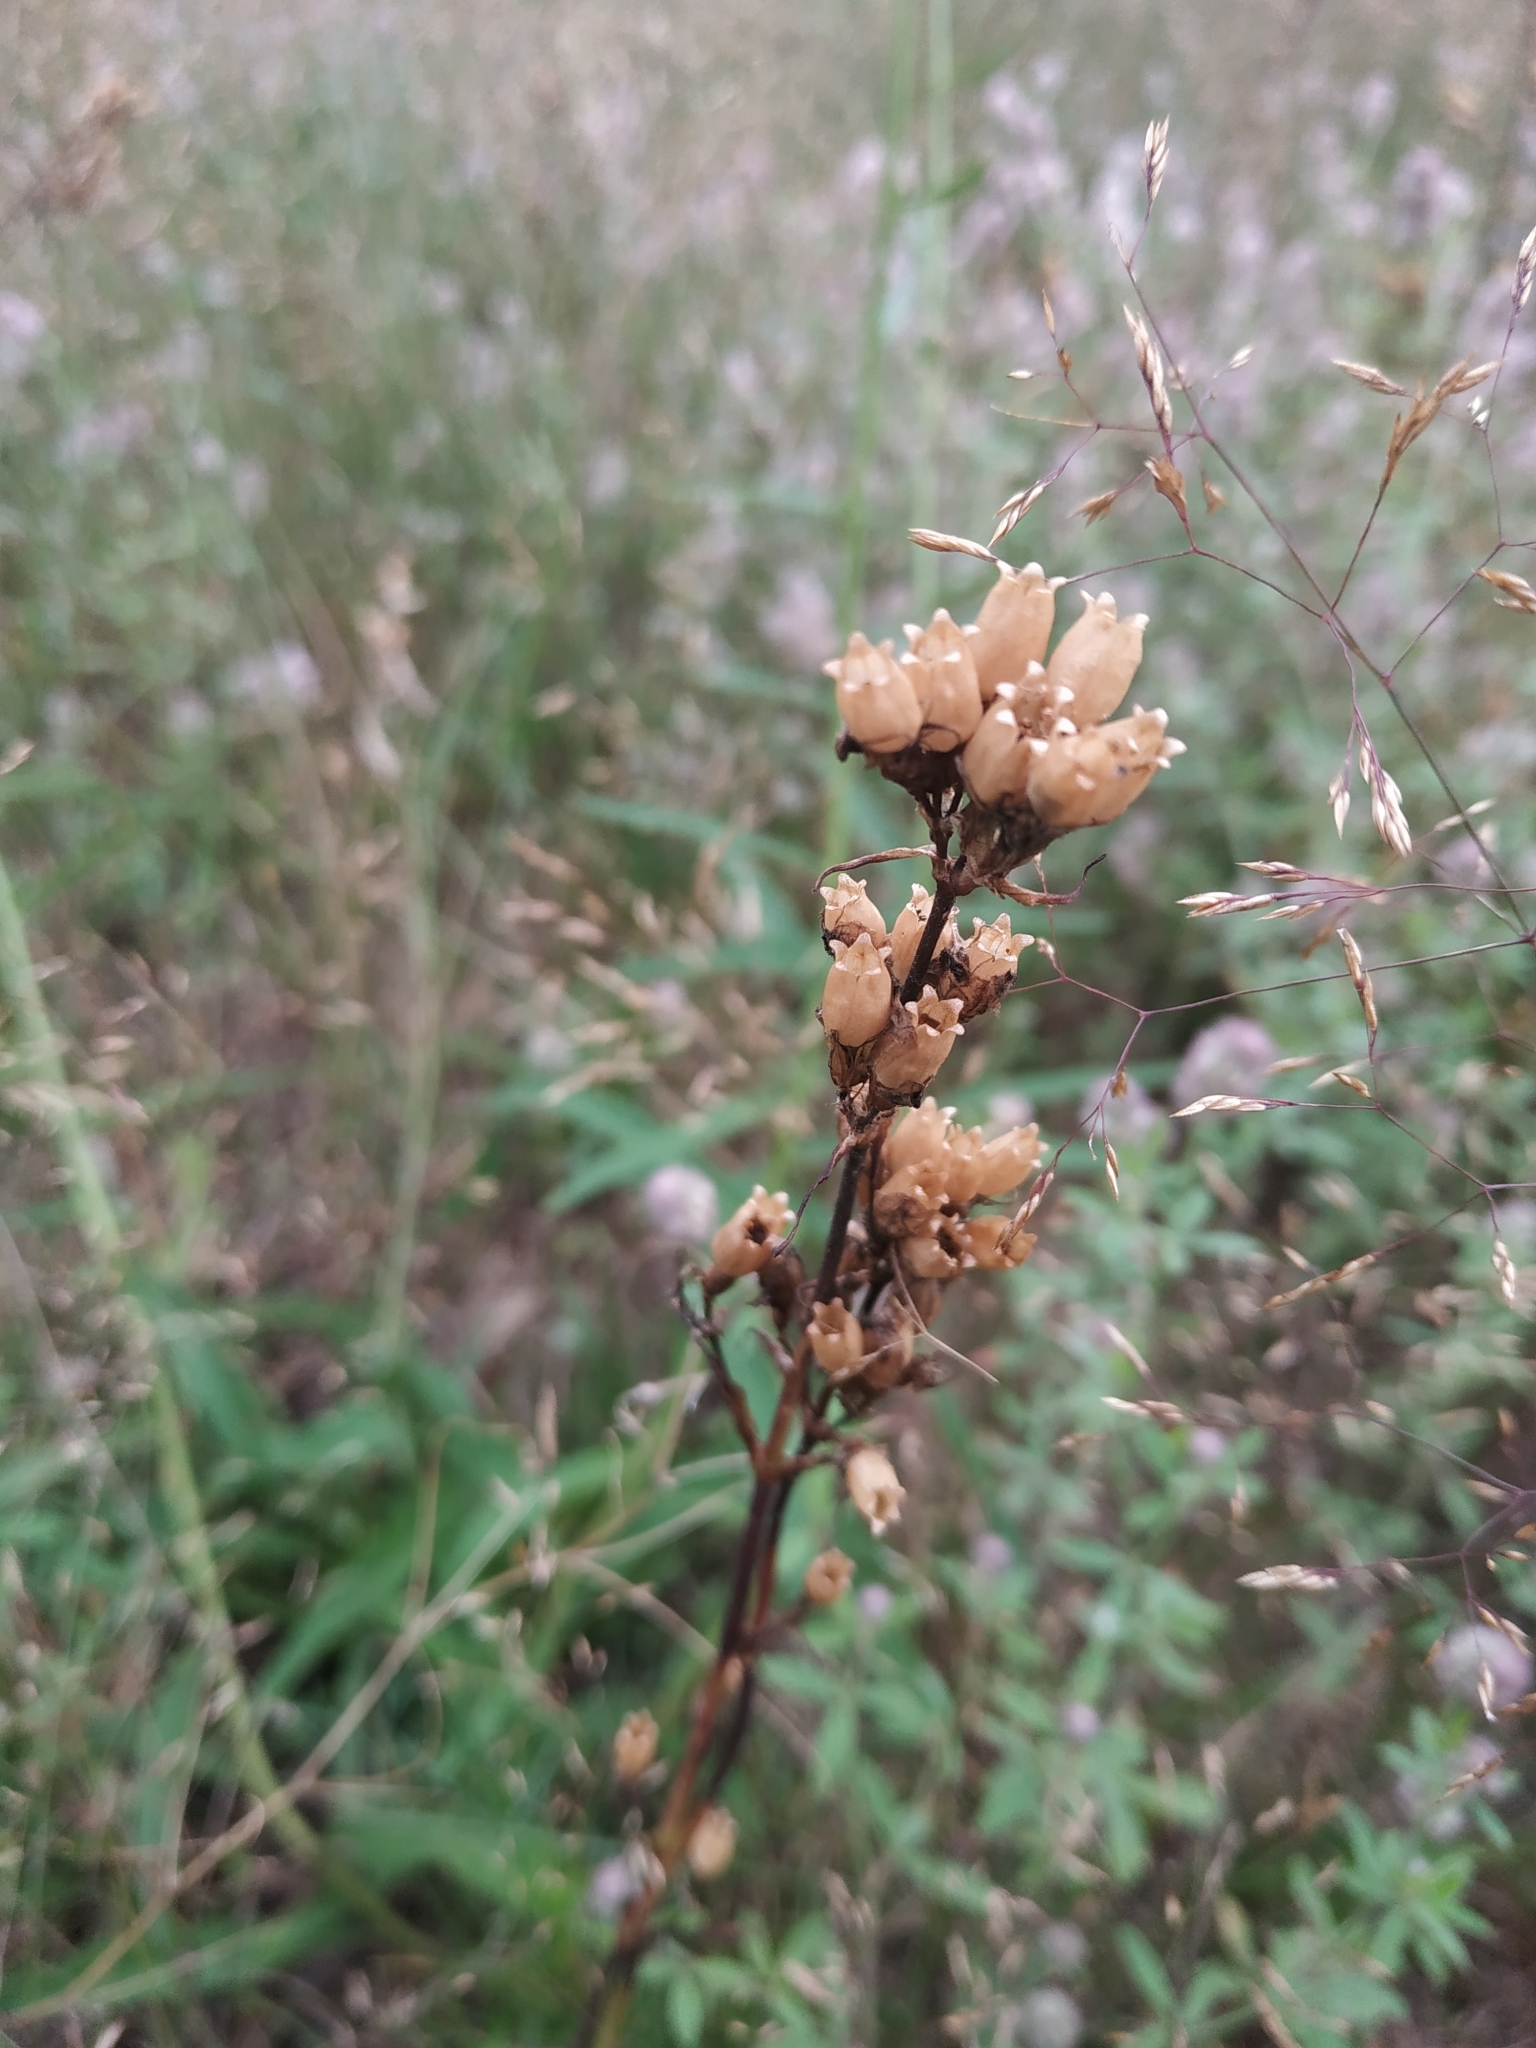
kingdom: Plantae
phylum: Tracheophyta
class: Magnoliopsida
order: Caryophyllales
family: Caryophyllaceae
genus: Viscaria
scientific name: Viscaria vulgaris
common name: Clammy campion
